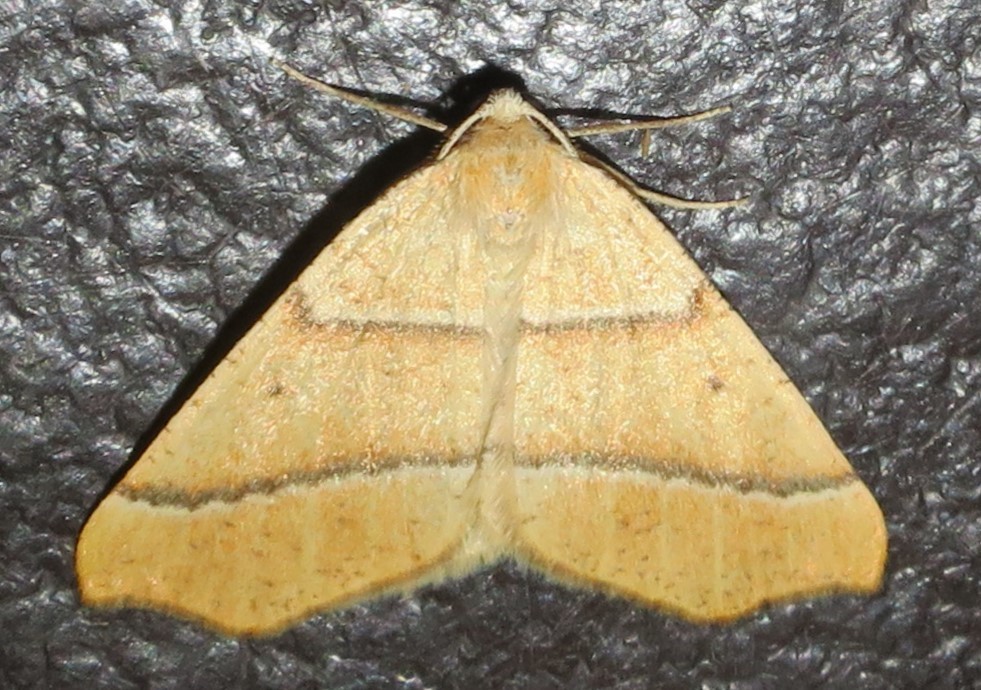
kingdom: Animalia
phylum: Arthropoda
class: Insecta
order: Lepidoptera
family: Geometridae
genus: Destutia
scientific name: Destutia excelsa
